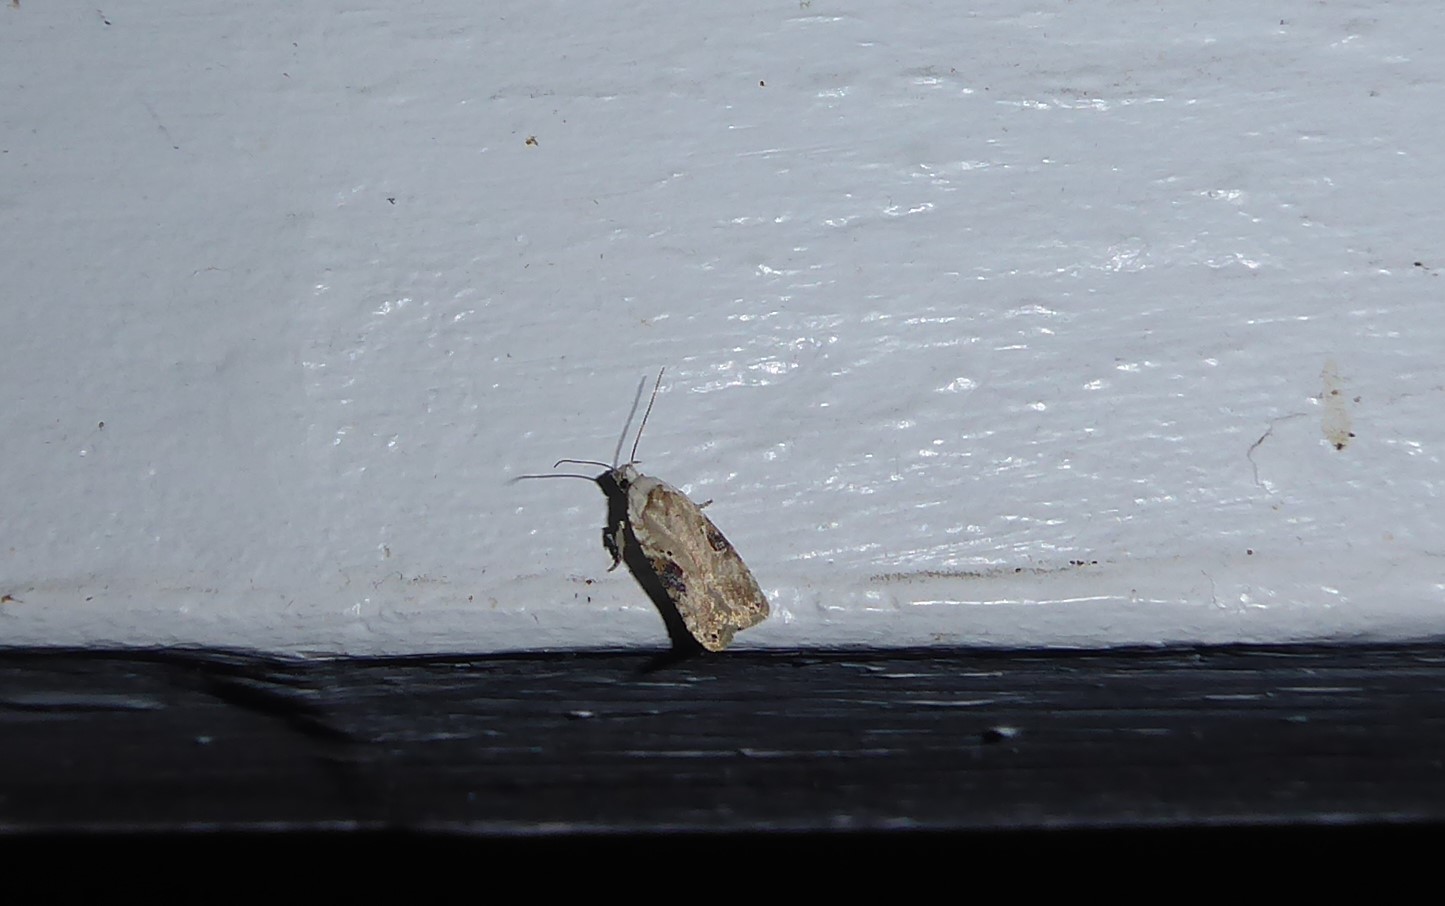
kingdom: Animalia
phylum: Arthropoda
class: Insecta
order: Lepidoptera
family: Depressariidae
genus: Agonopterix
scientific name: Agonopterix alstroemeriana
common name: Moth
